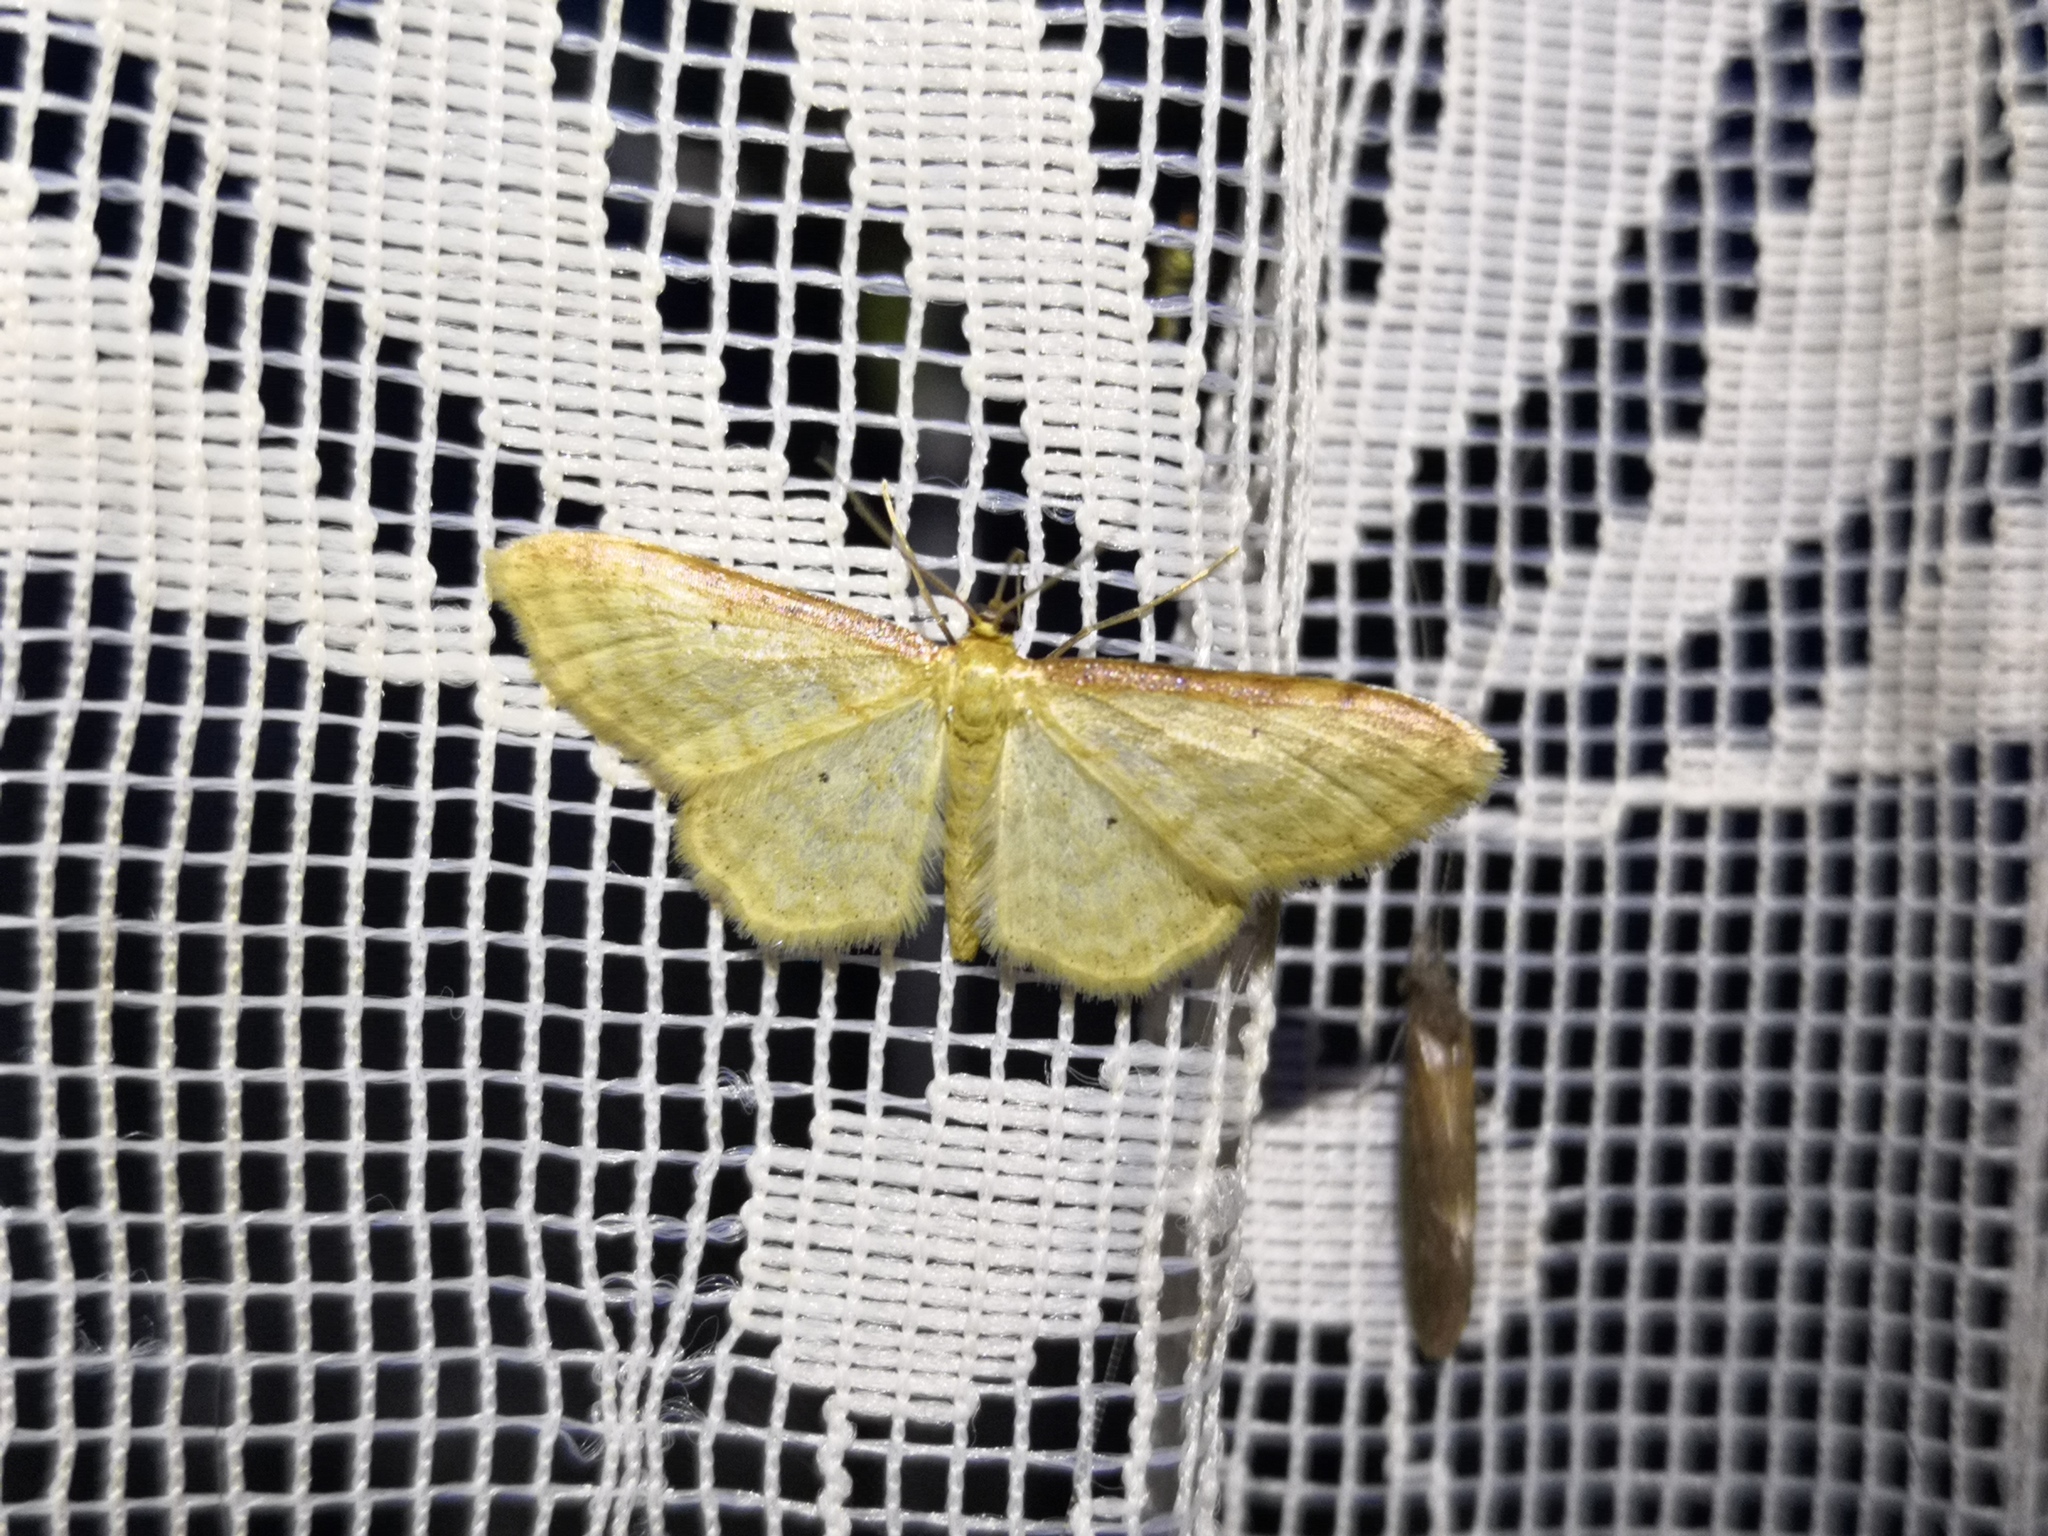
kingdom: Animalia
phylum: Arthropoda
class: Insecta
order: Lepidoptera
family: Geometridae
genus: Idaea
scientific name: Idaea humiliata
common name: Isle of wight wave
